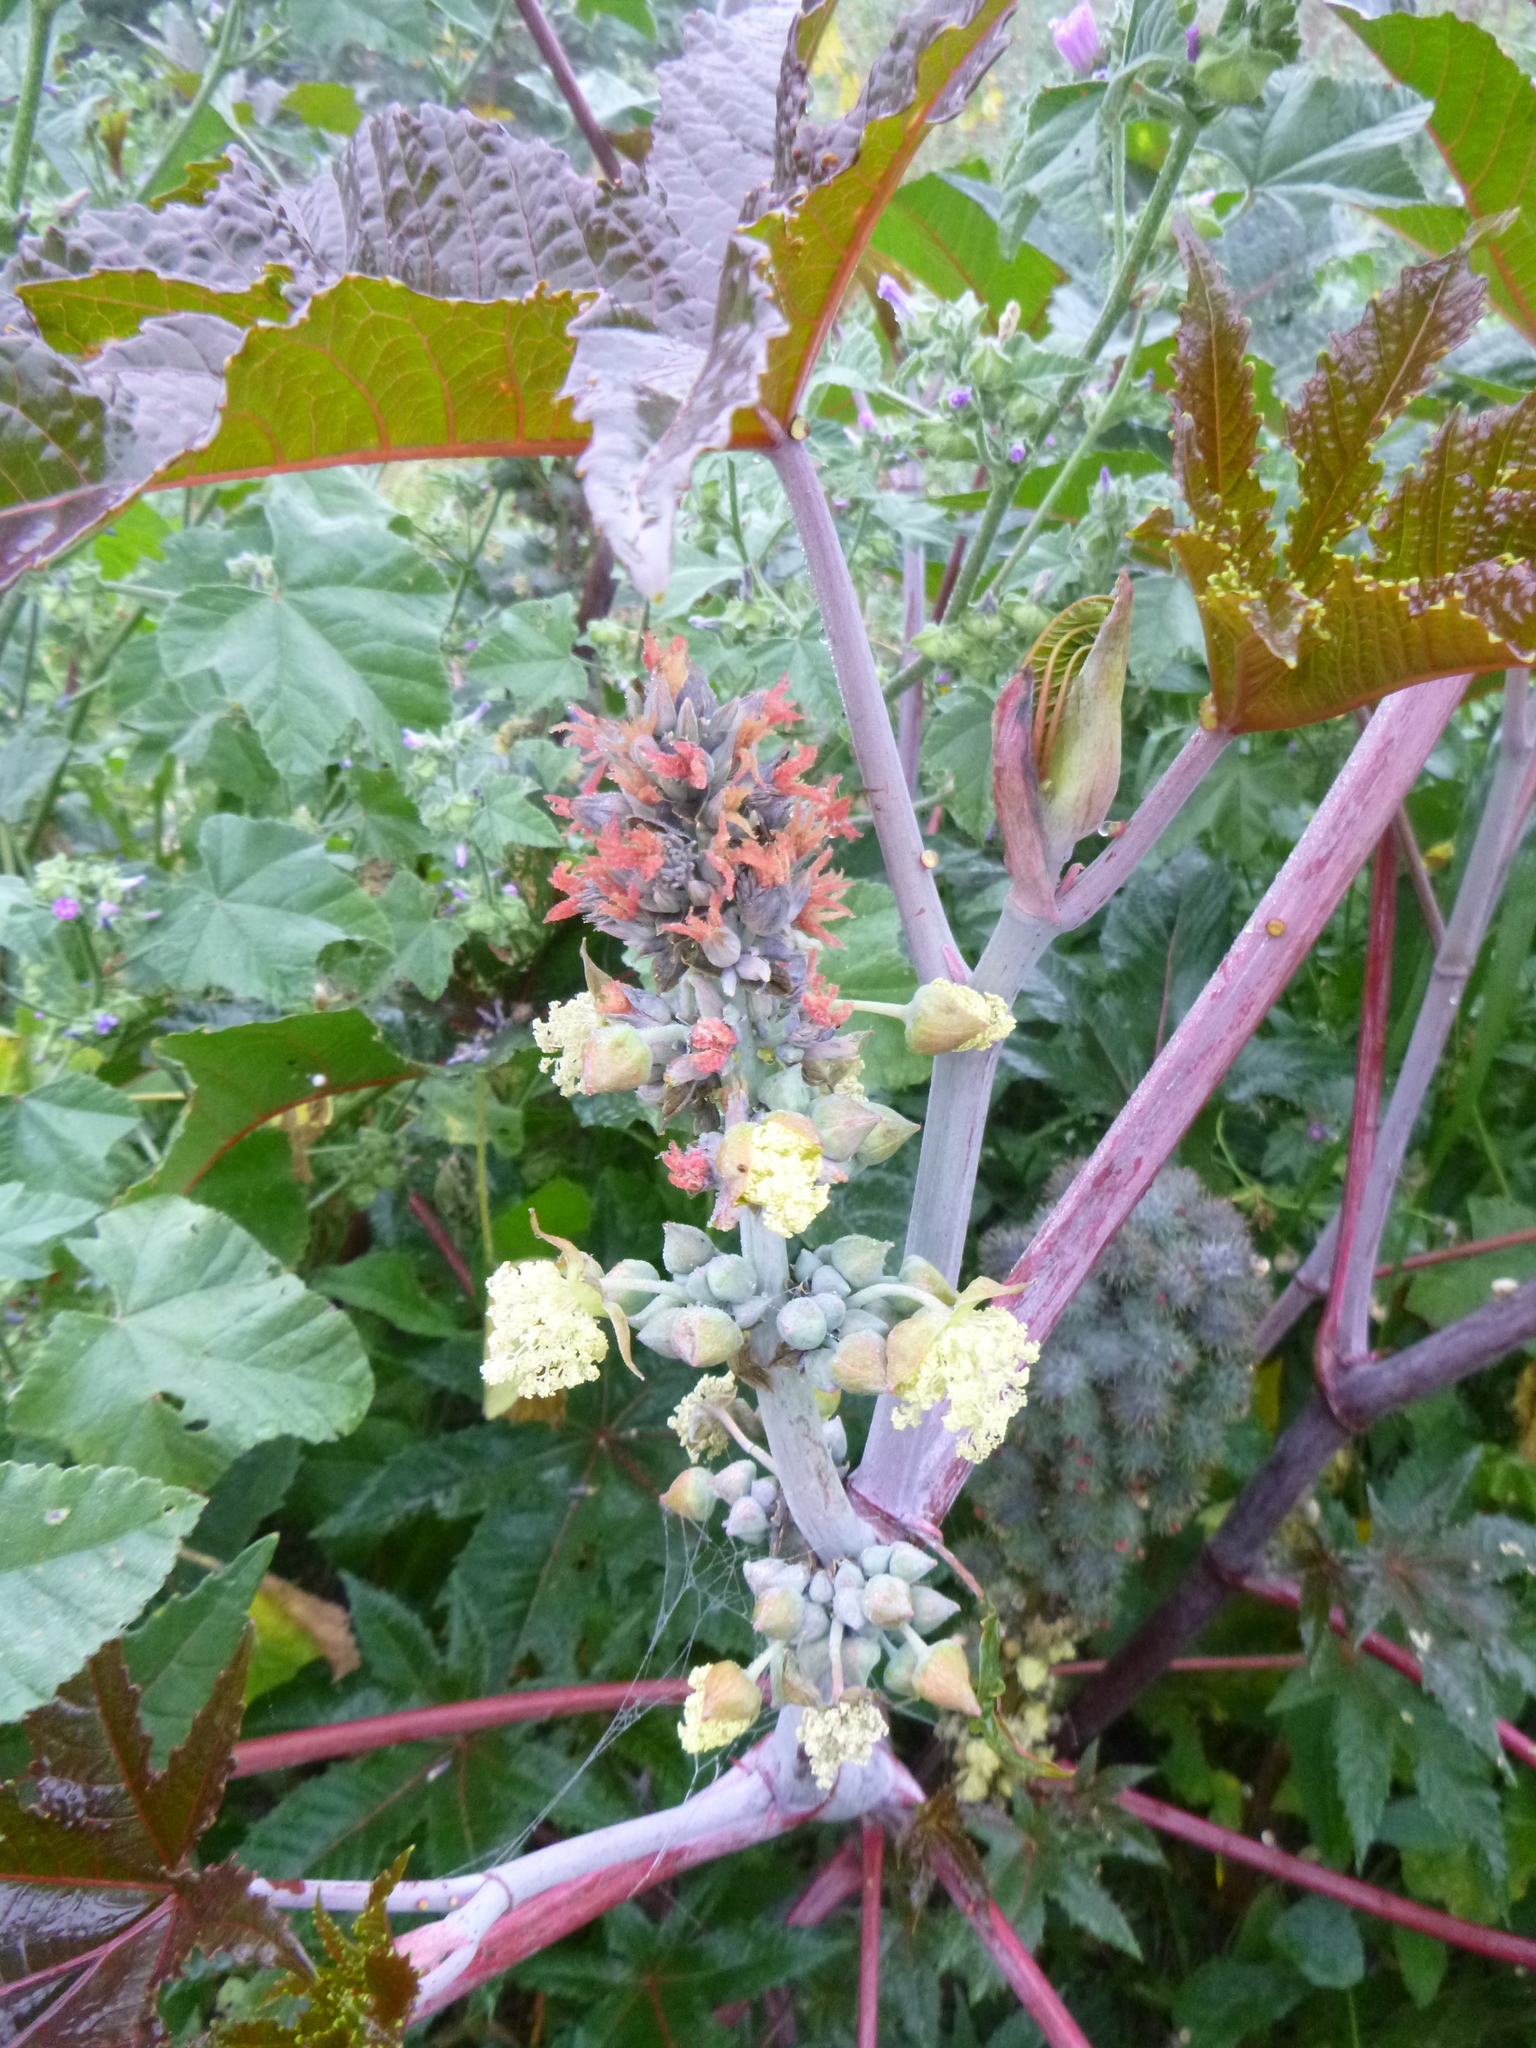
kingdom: Plantae
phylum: Tracheophyta
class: Magnoliopsida
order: Malpighiales
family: Euphorbiaceae
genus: Ricinus
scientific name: Ricinus communis
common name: Castor-oil-plant
